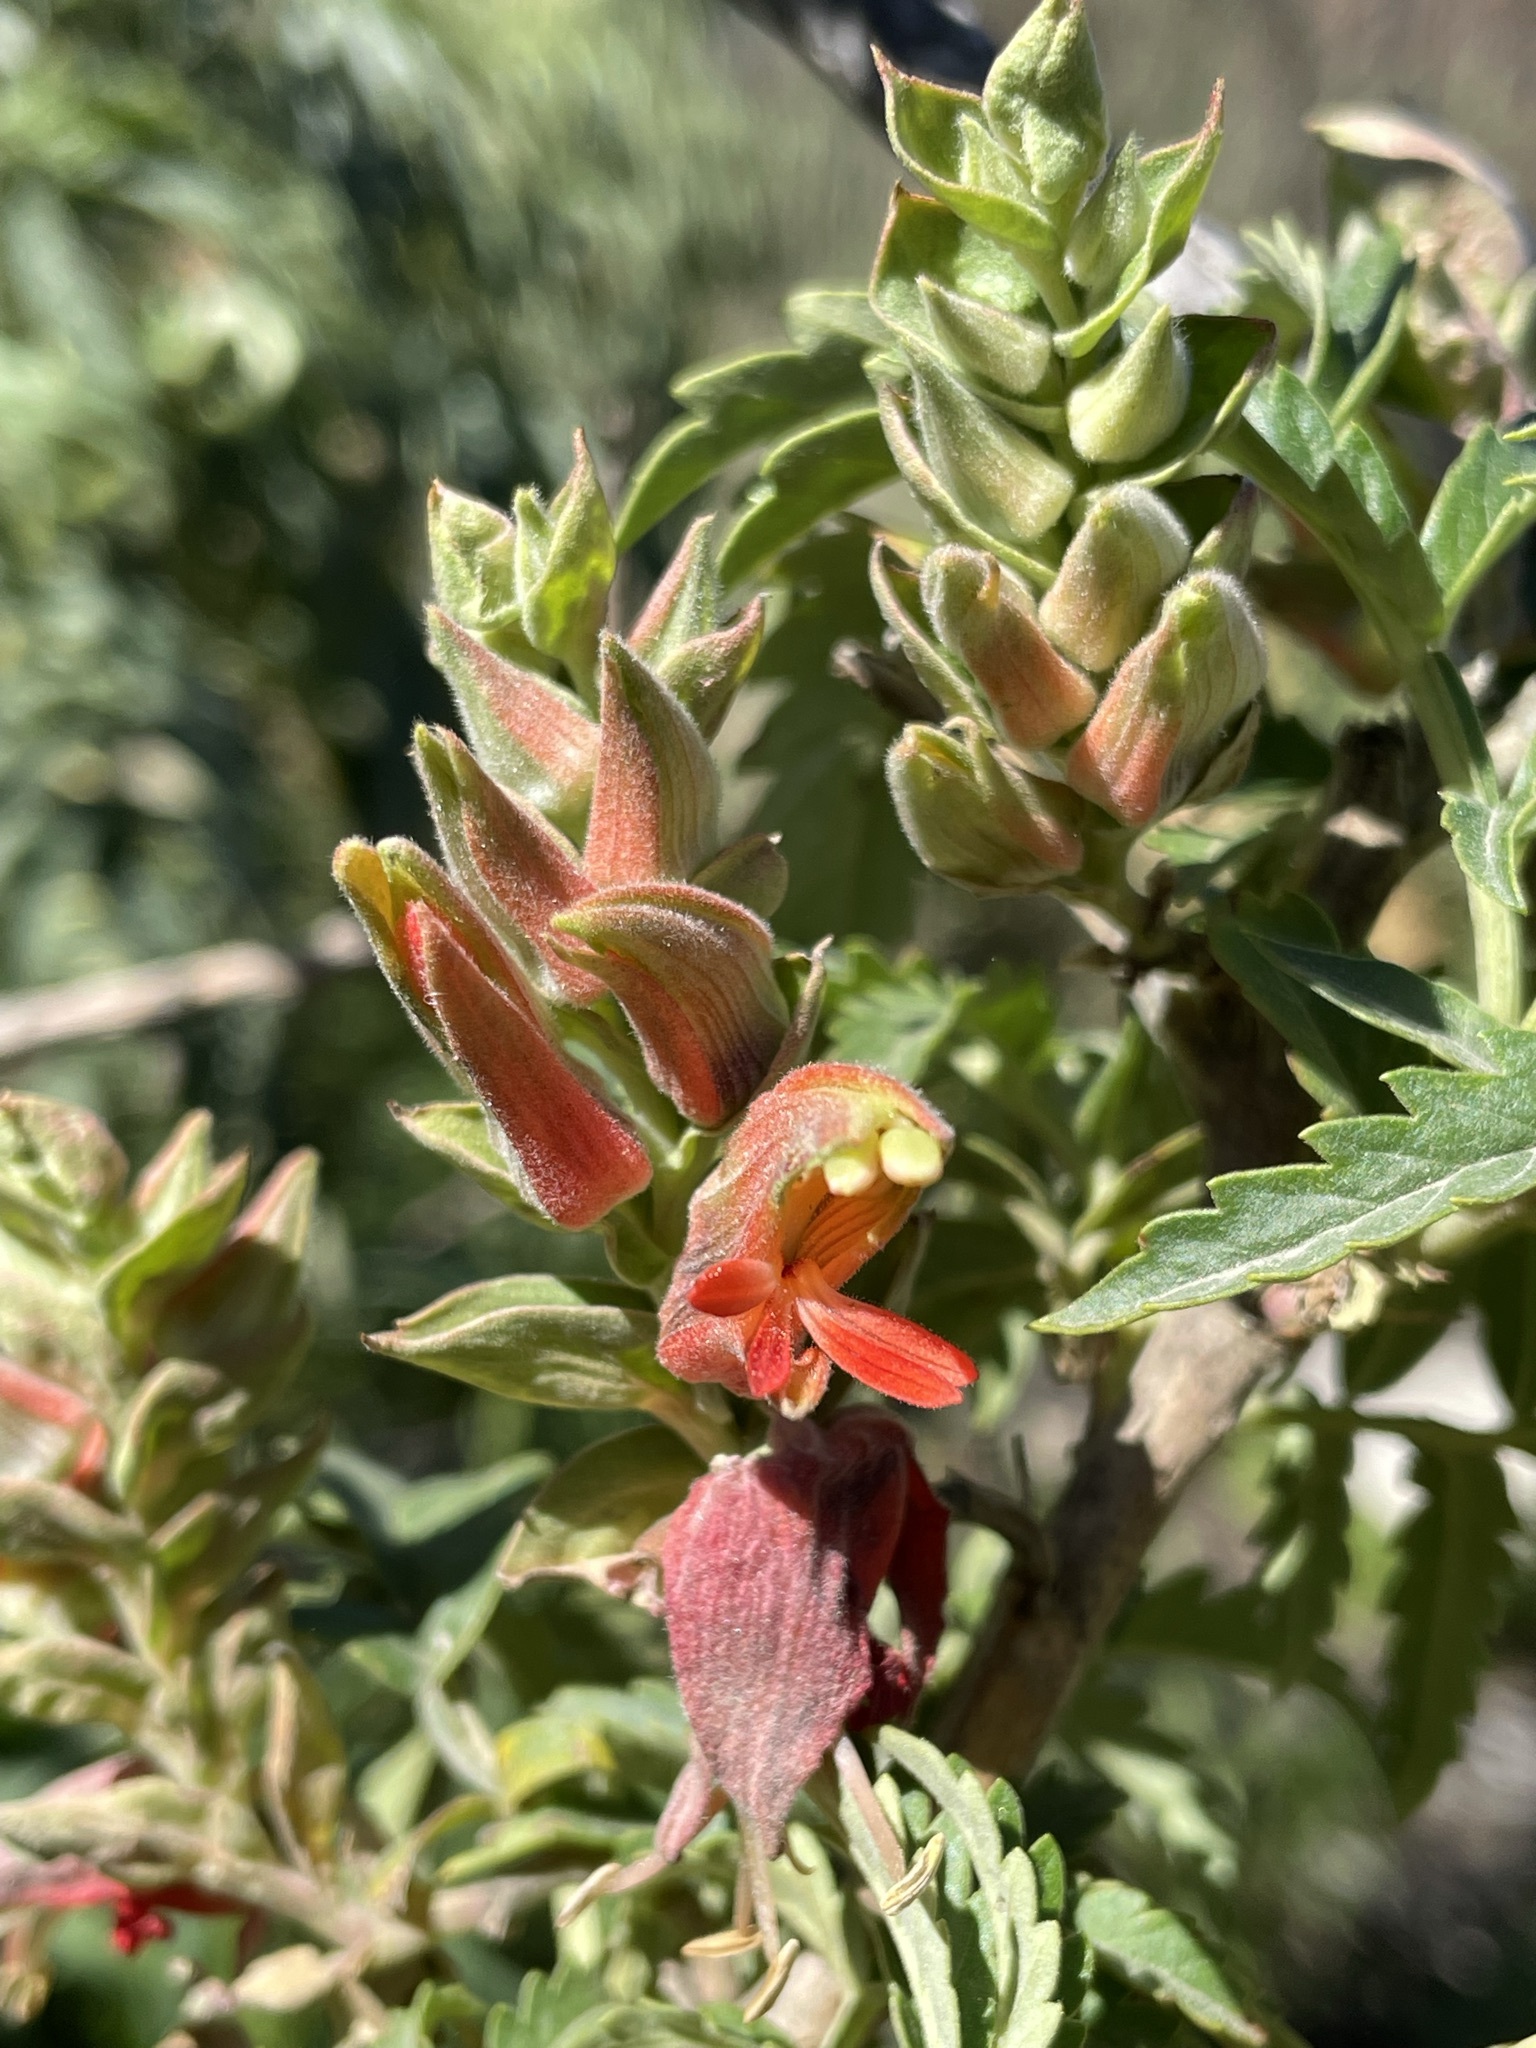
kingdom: Plantae
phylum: Tracheophyta
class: Magnoliopsida
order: Geraniales
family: Melianthaceae
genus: Melianthus
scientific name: Melianthus comosus
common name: Touch-me-not
